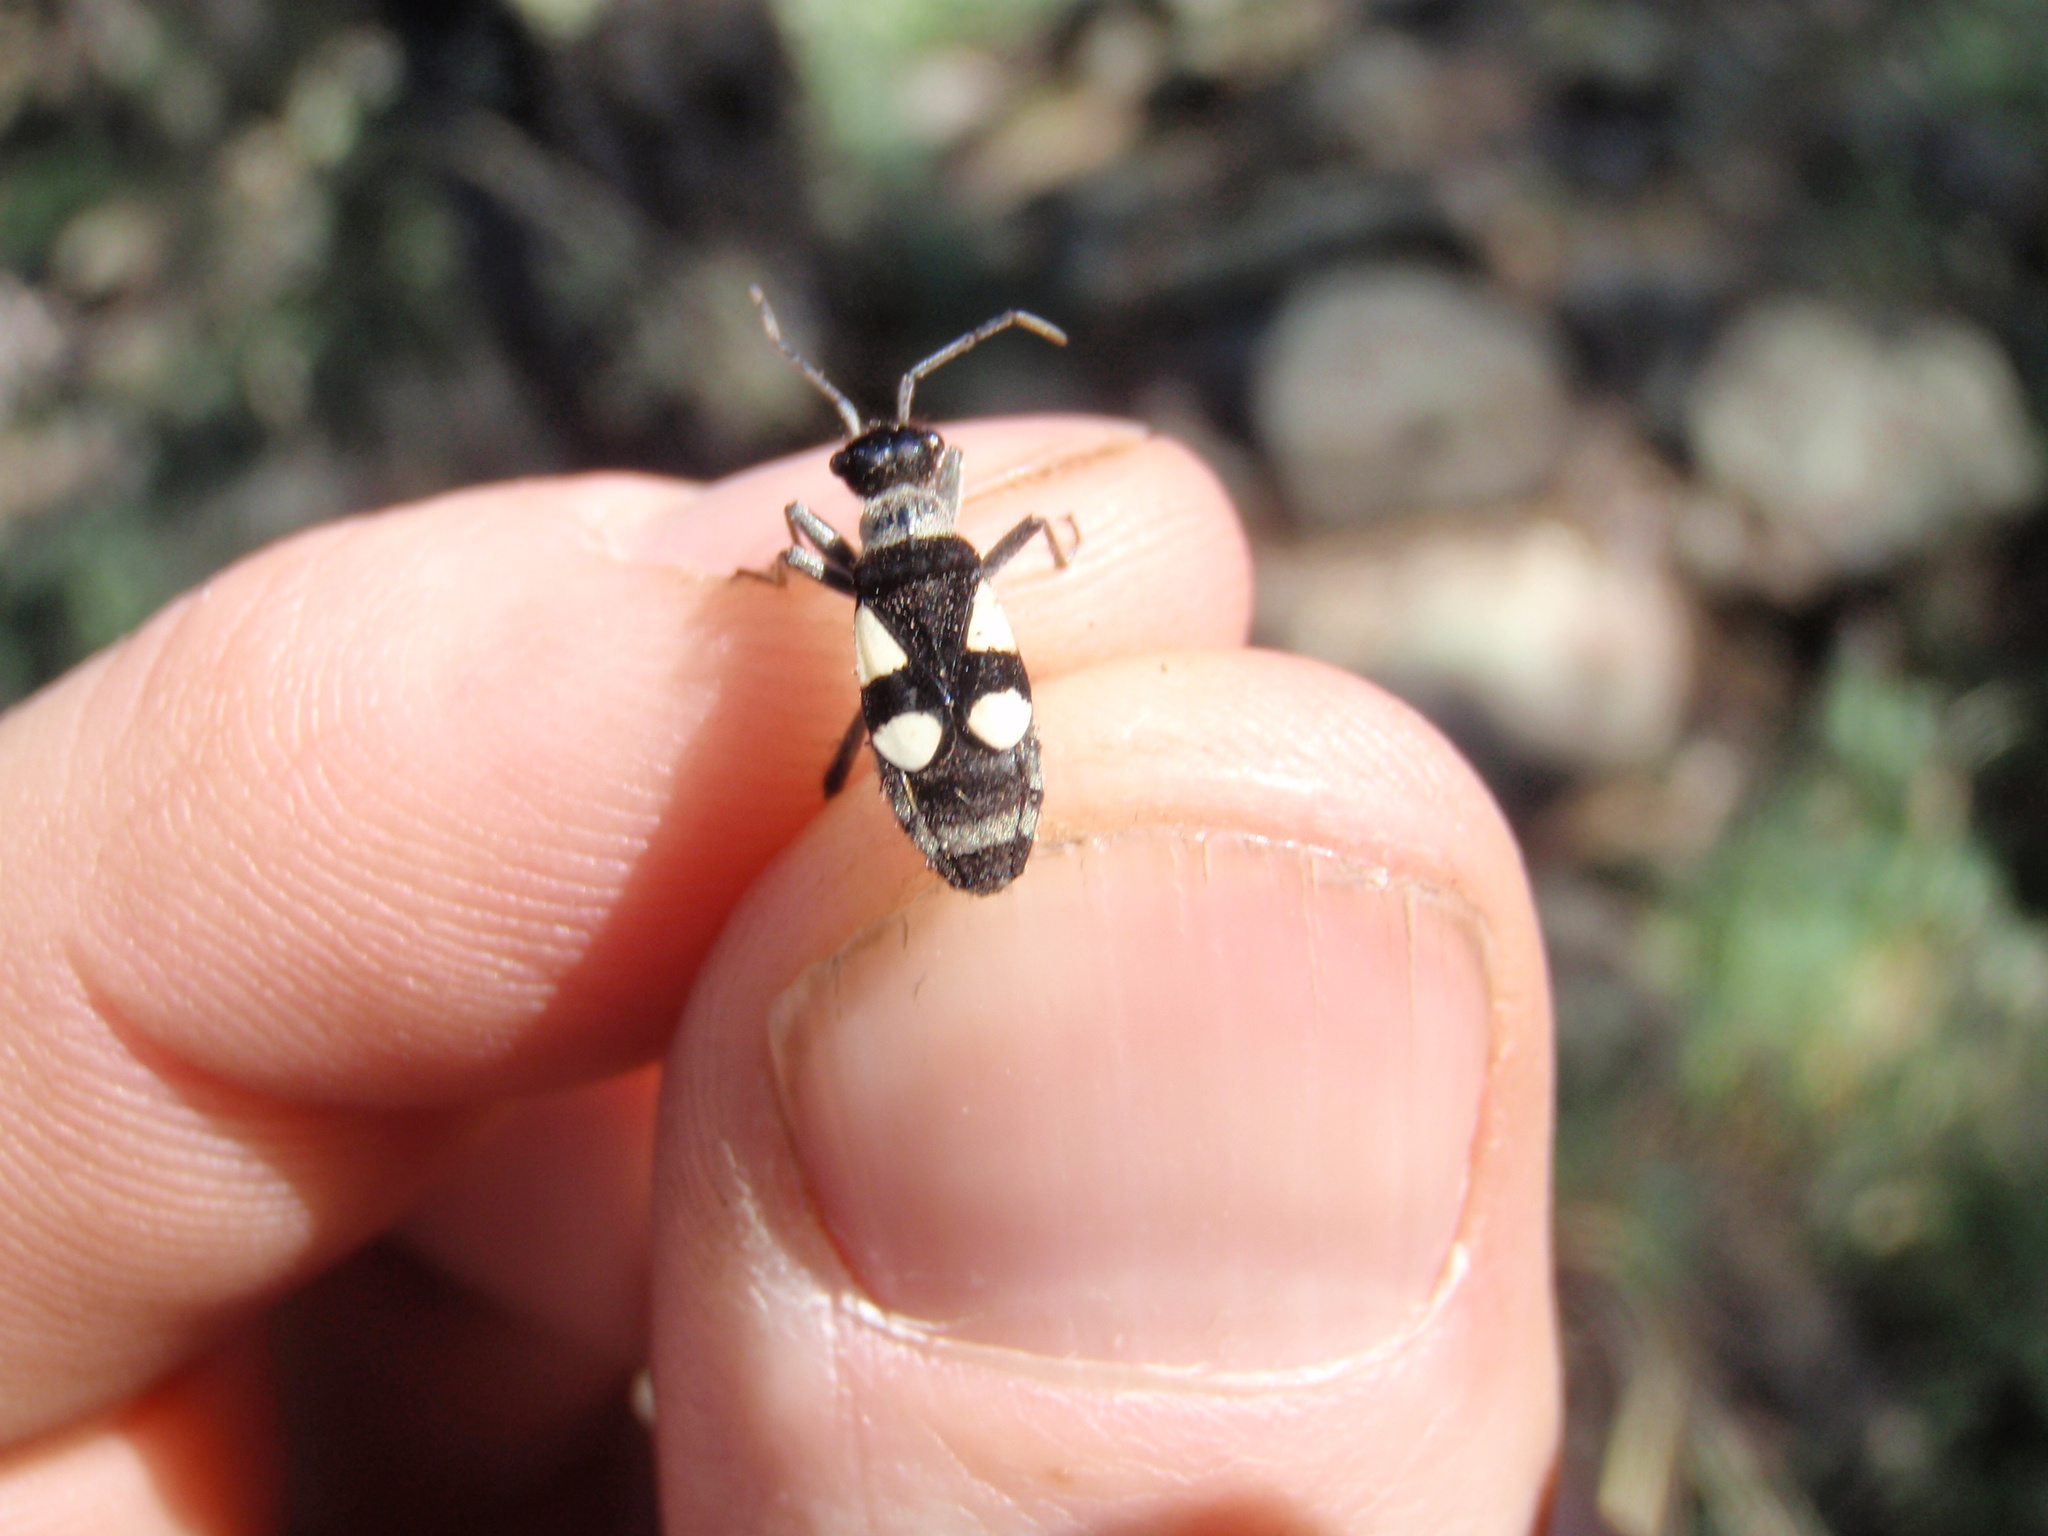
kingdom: Animalia
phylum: Arthropoda
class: Insecta
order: Hemiptera
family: Largidae
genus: Arhaphe
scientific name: Arhaphe arguta
